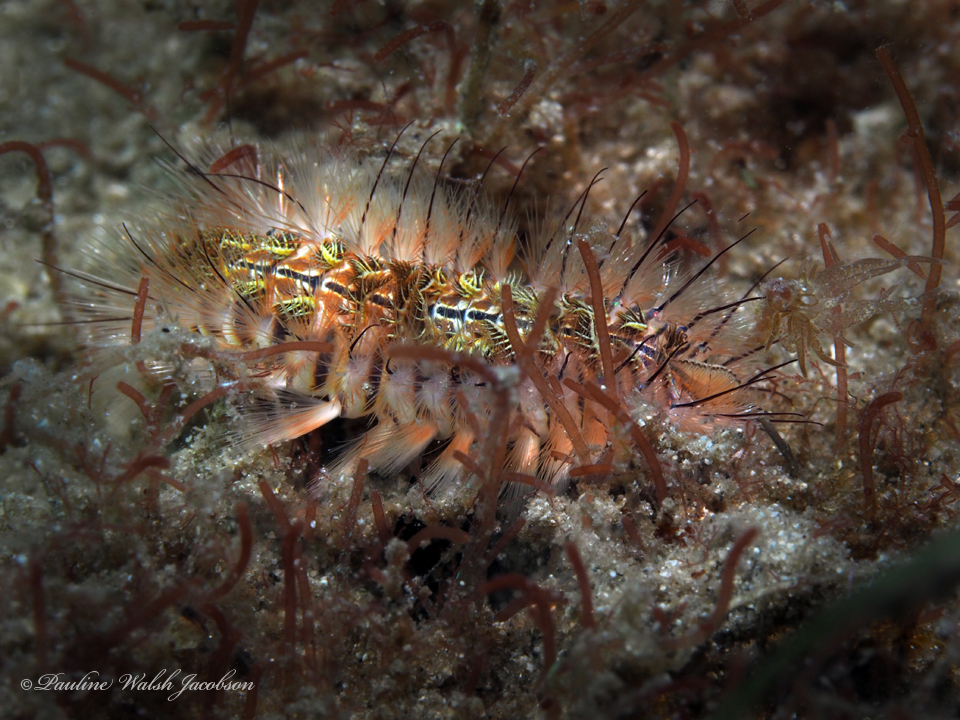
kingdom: Animalia
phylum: Annelida
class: Polychaeta
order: Amphinomida
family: Amphinomidae
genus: Chloeia
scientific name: Chloeia viridis
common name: Red-tipped fireworm
